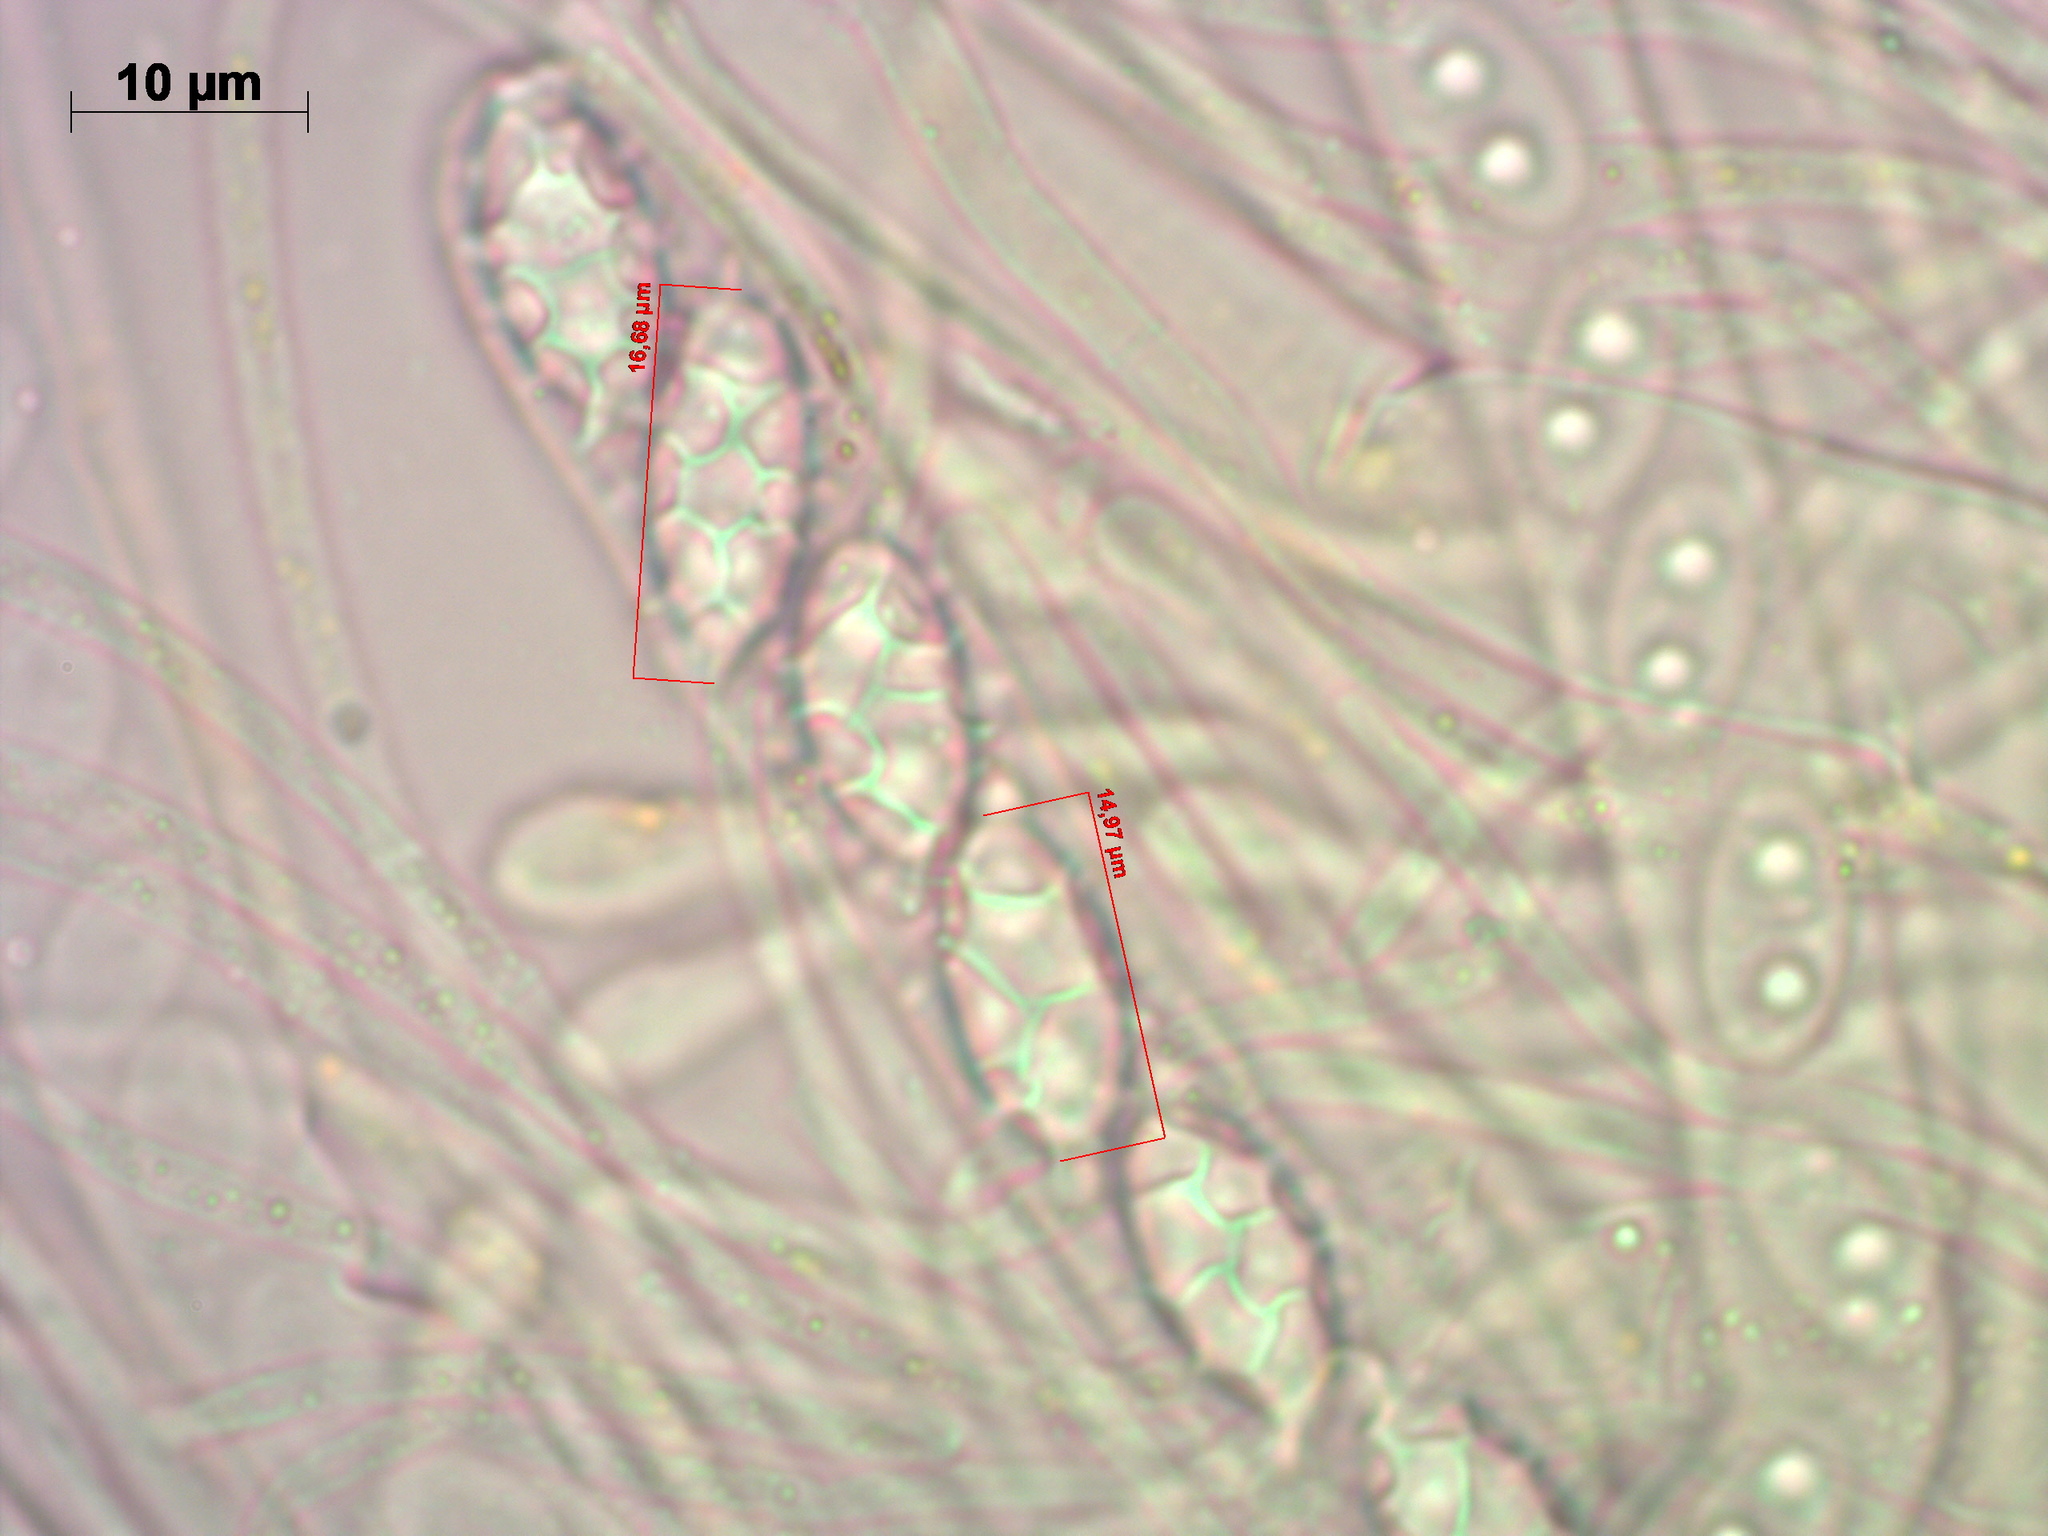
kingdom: Fungi
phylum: Ascomycota
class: Pezizomycetes
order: Pezizales
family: Pyronemataceae
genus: Aleuria
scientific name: Aleuria aurantia
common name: Orange peel fungus
